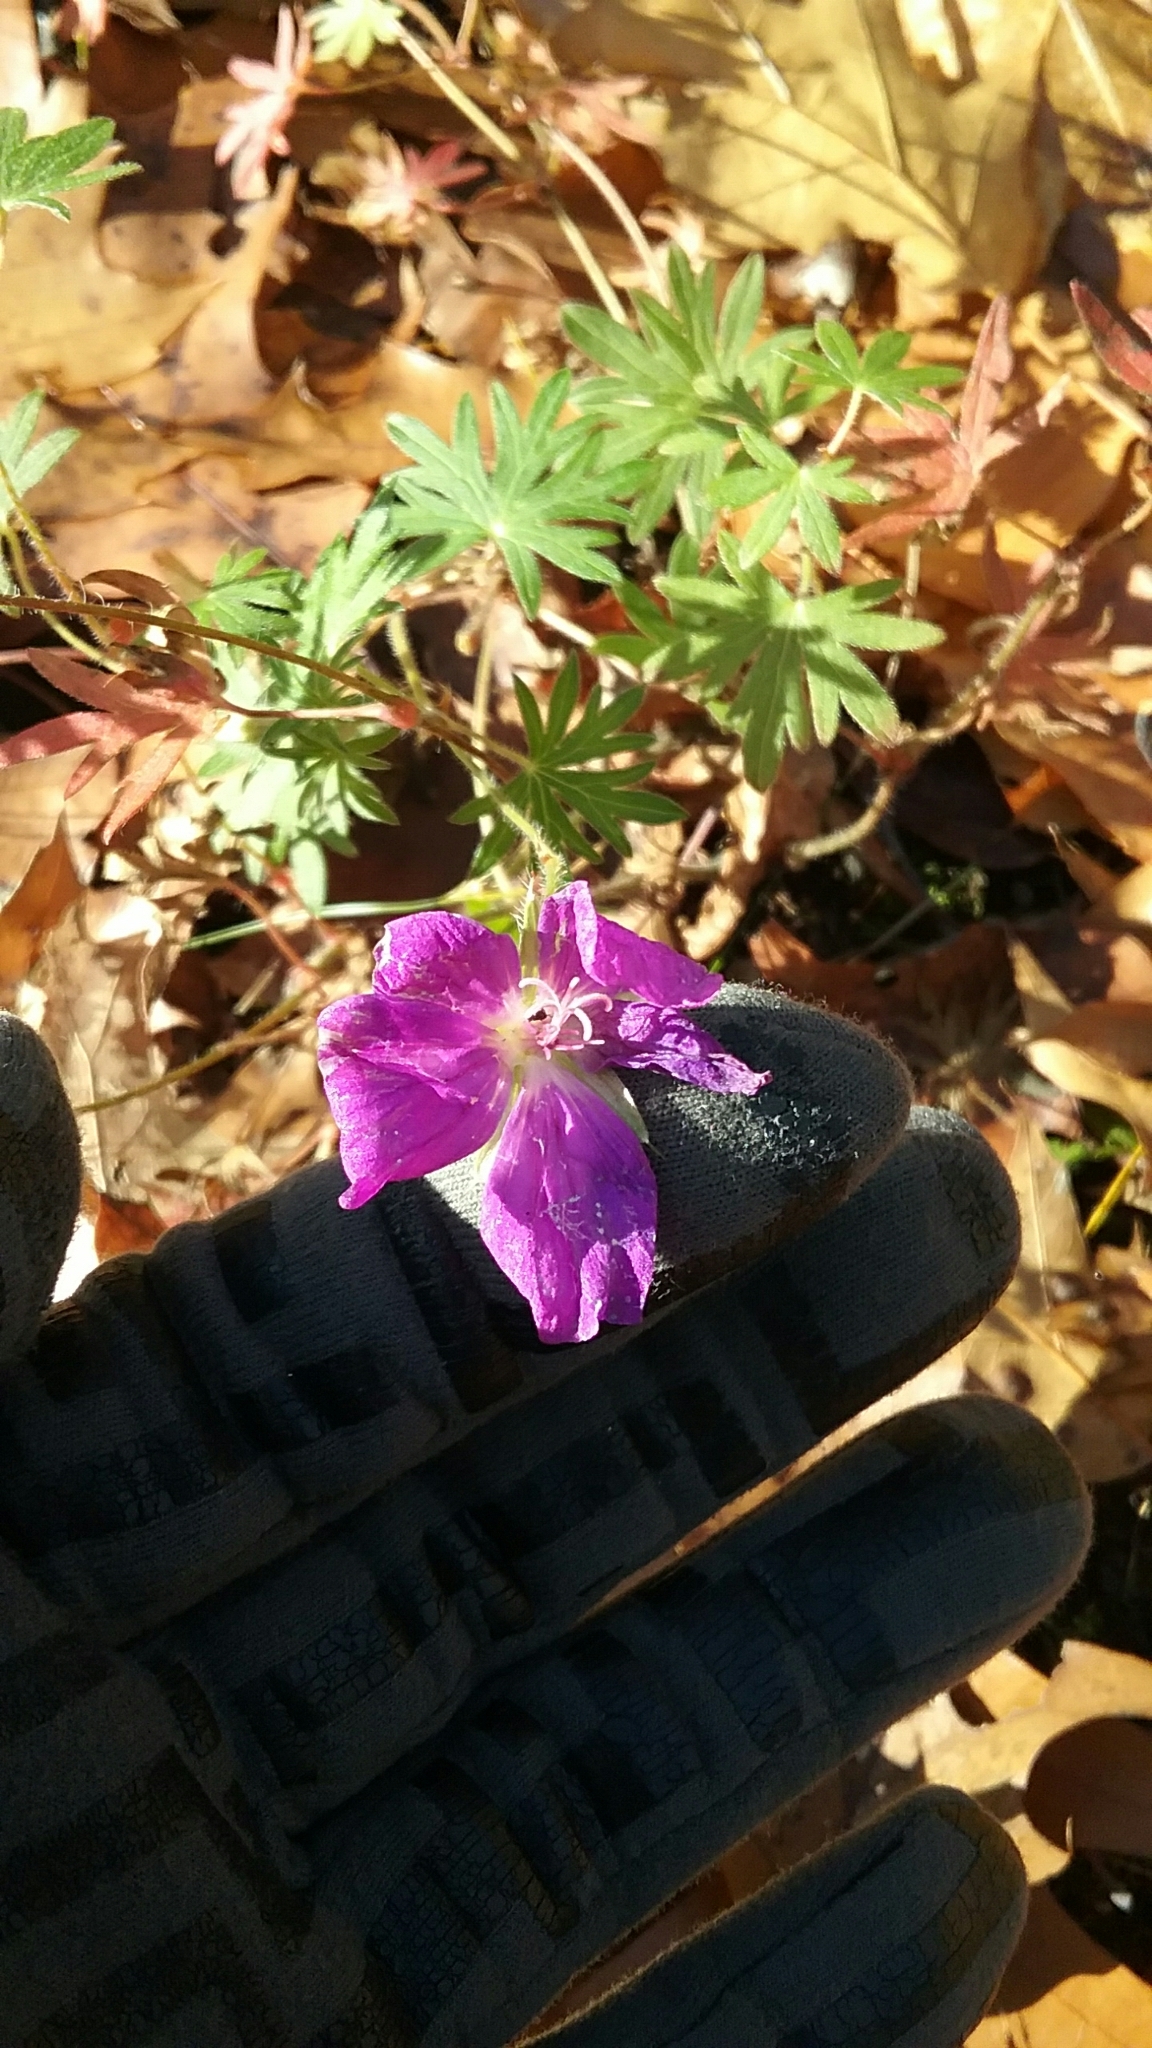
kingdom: Plantae
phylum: Tracheophyta
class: Magnoliopsida
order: Geraniales
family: Geraniaceae
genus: Geranium
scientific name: Geranium sanguineum
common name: Bloody crane's-bill
